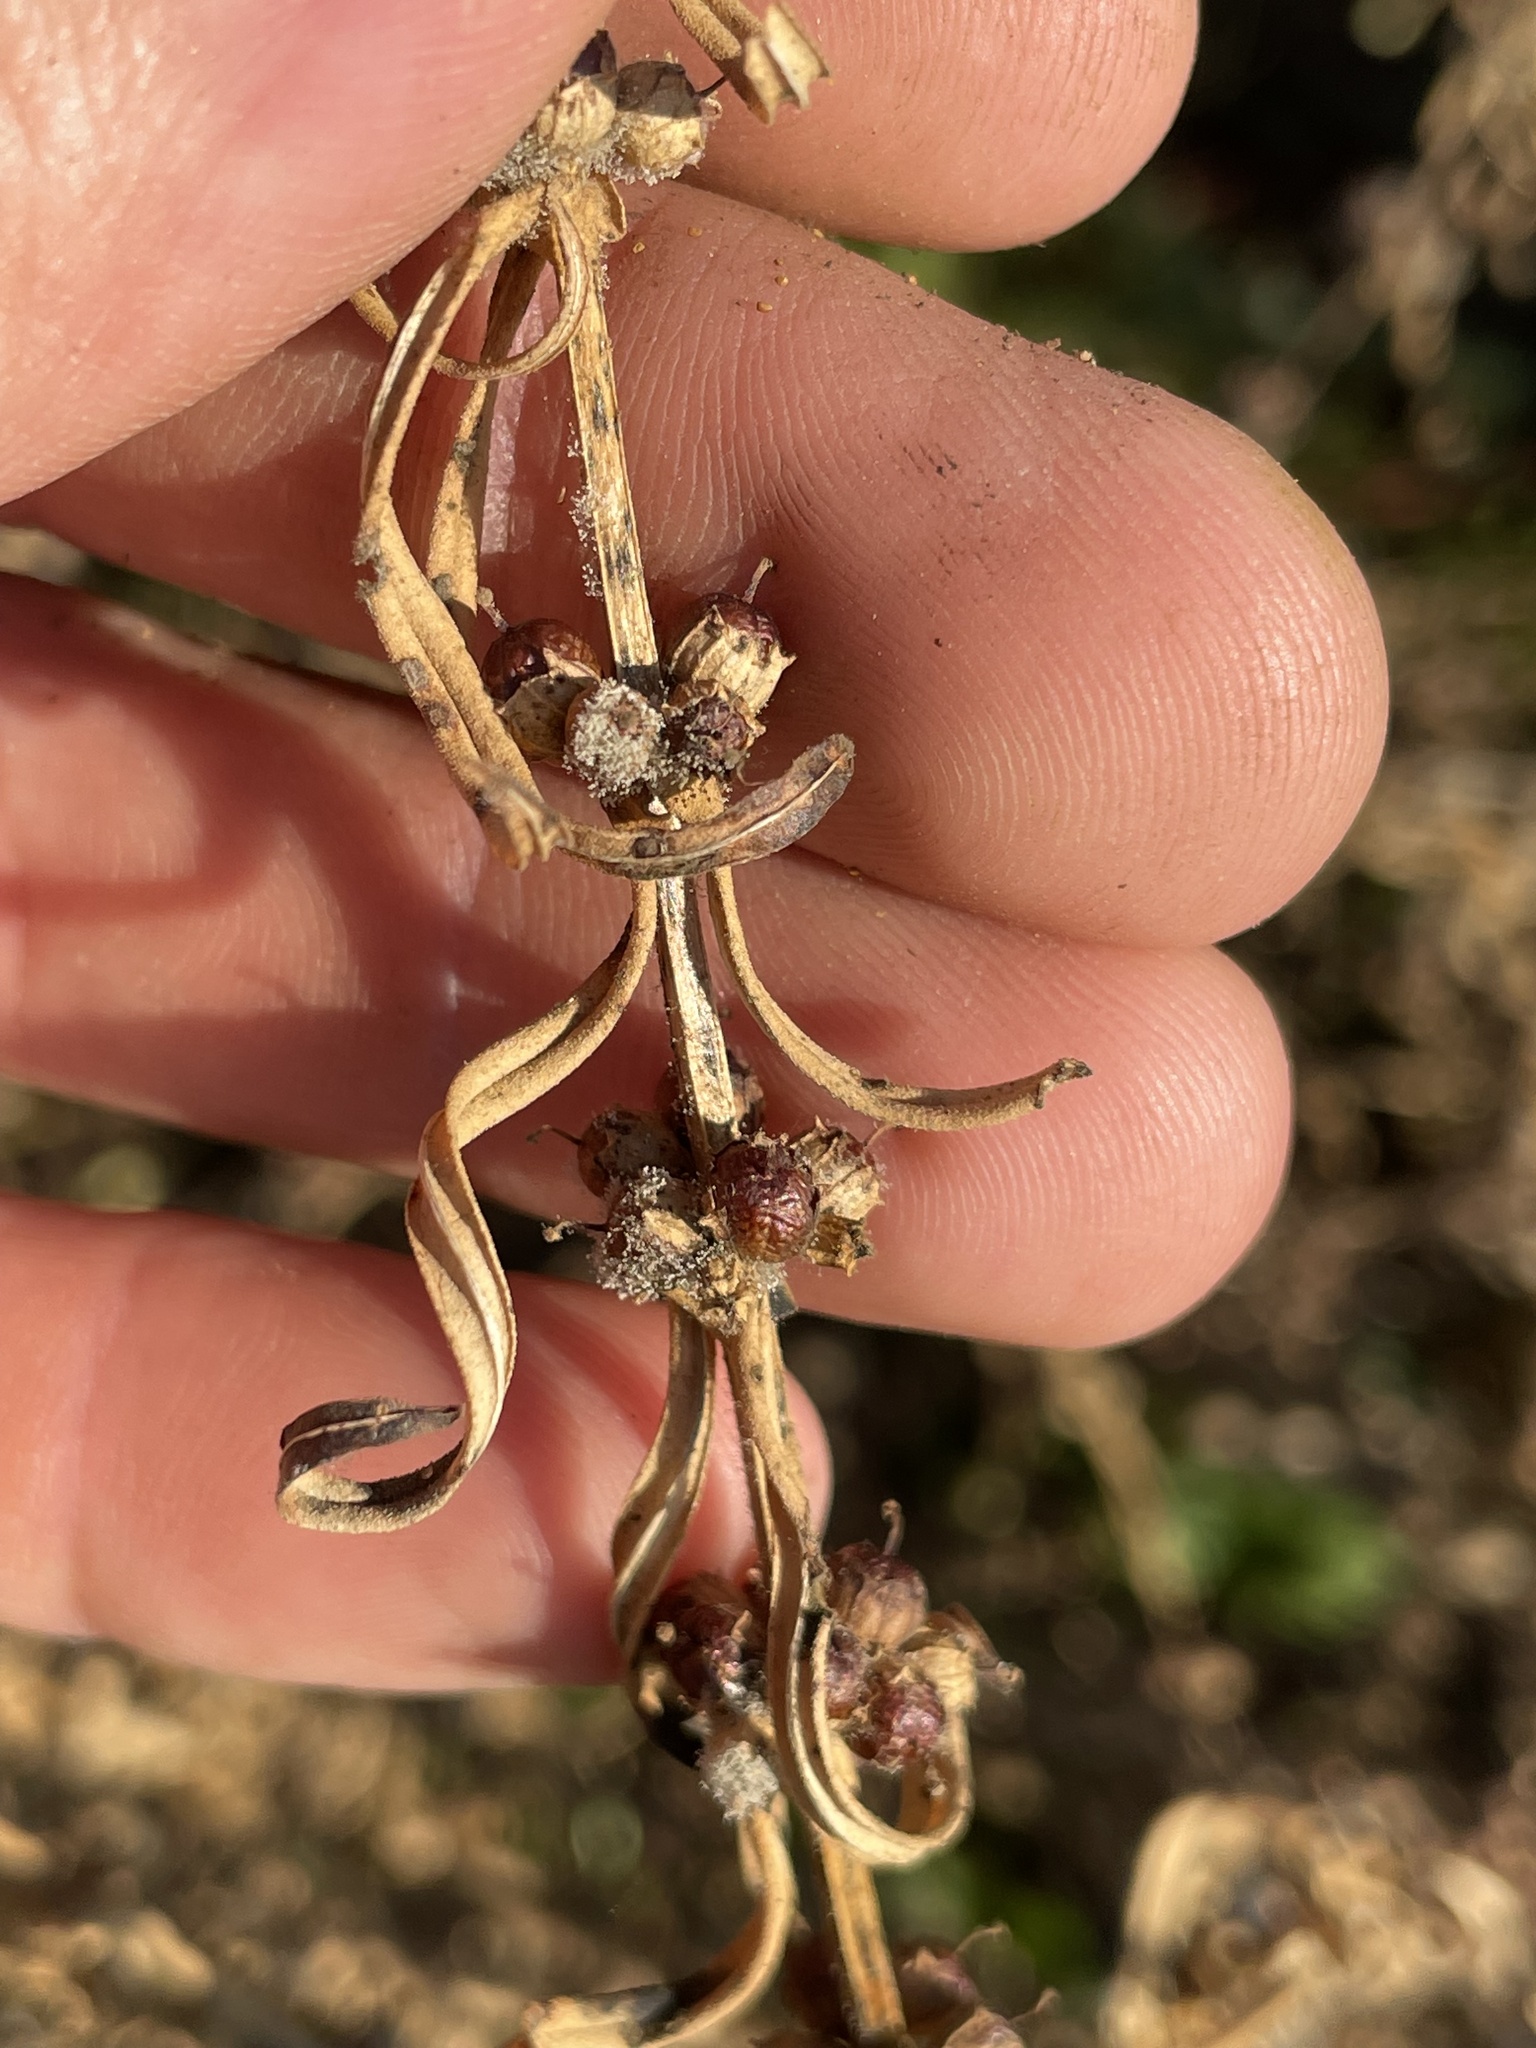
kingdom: Plantae
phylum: Tracheophyta
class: Magnoliopsida
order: Myrtales
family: Lythraceae
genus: Ammannia
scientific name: Ammannia coccinea
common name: Valley redstem
